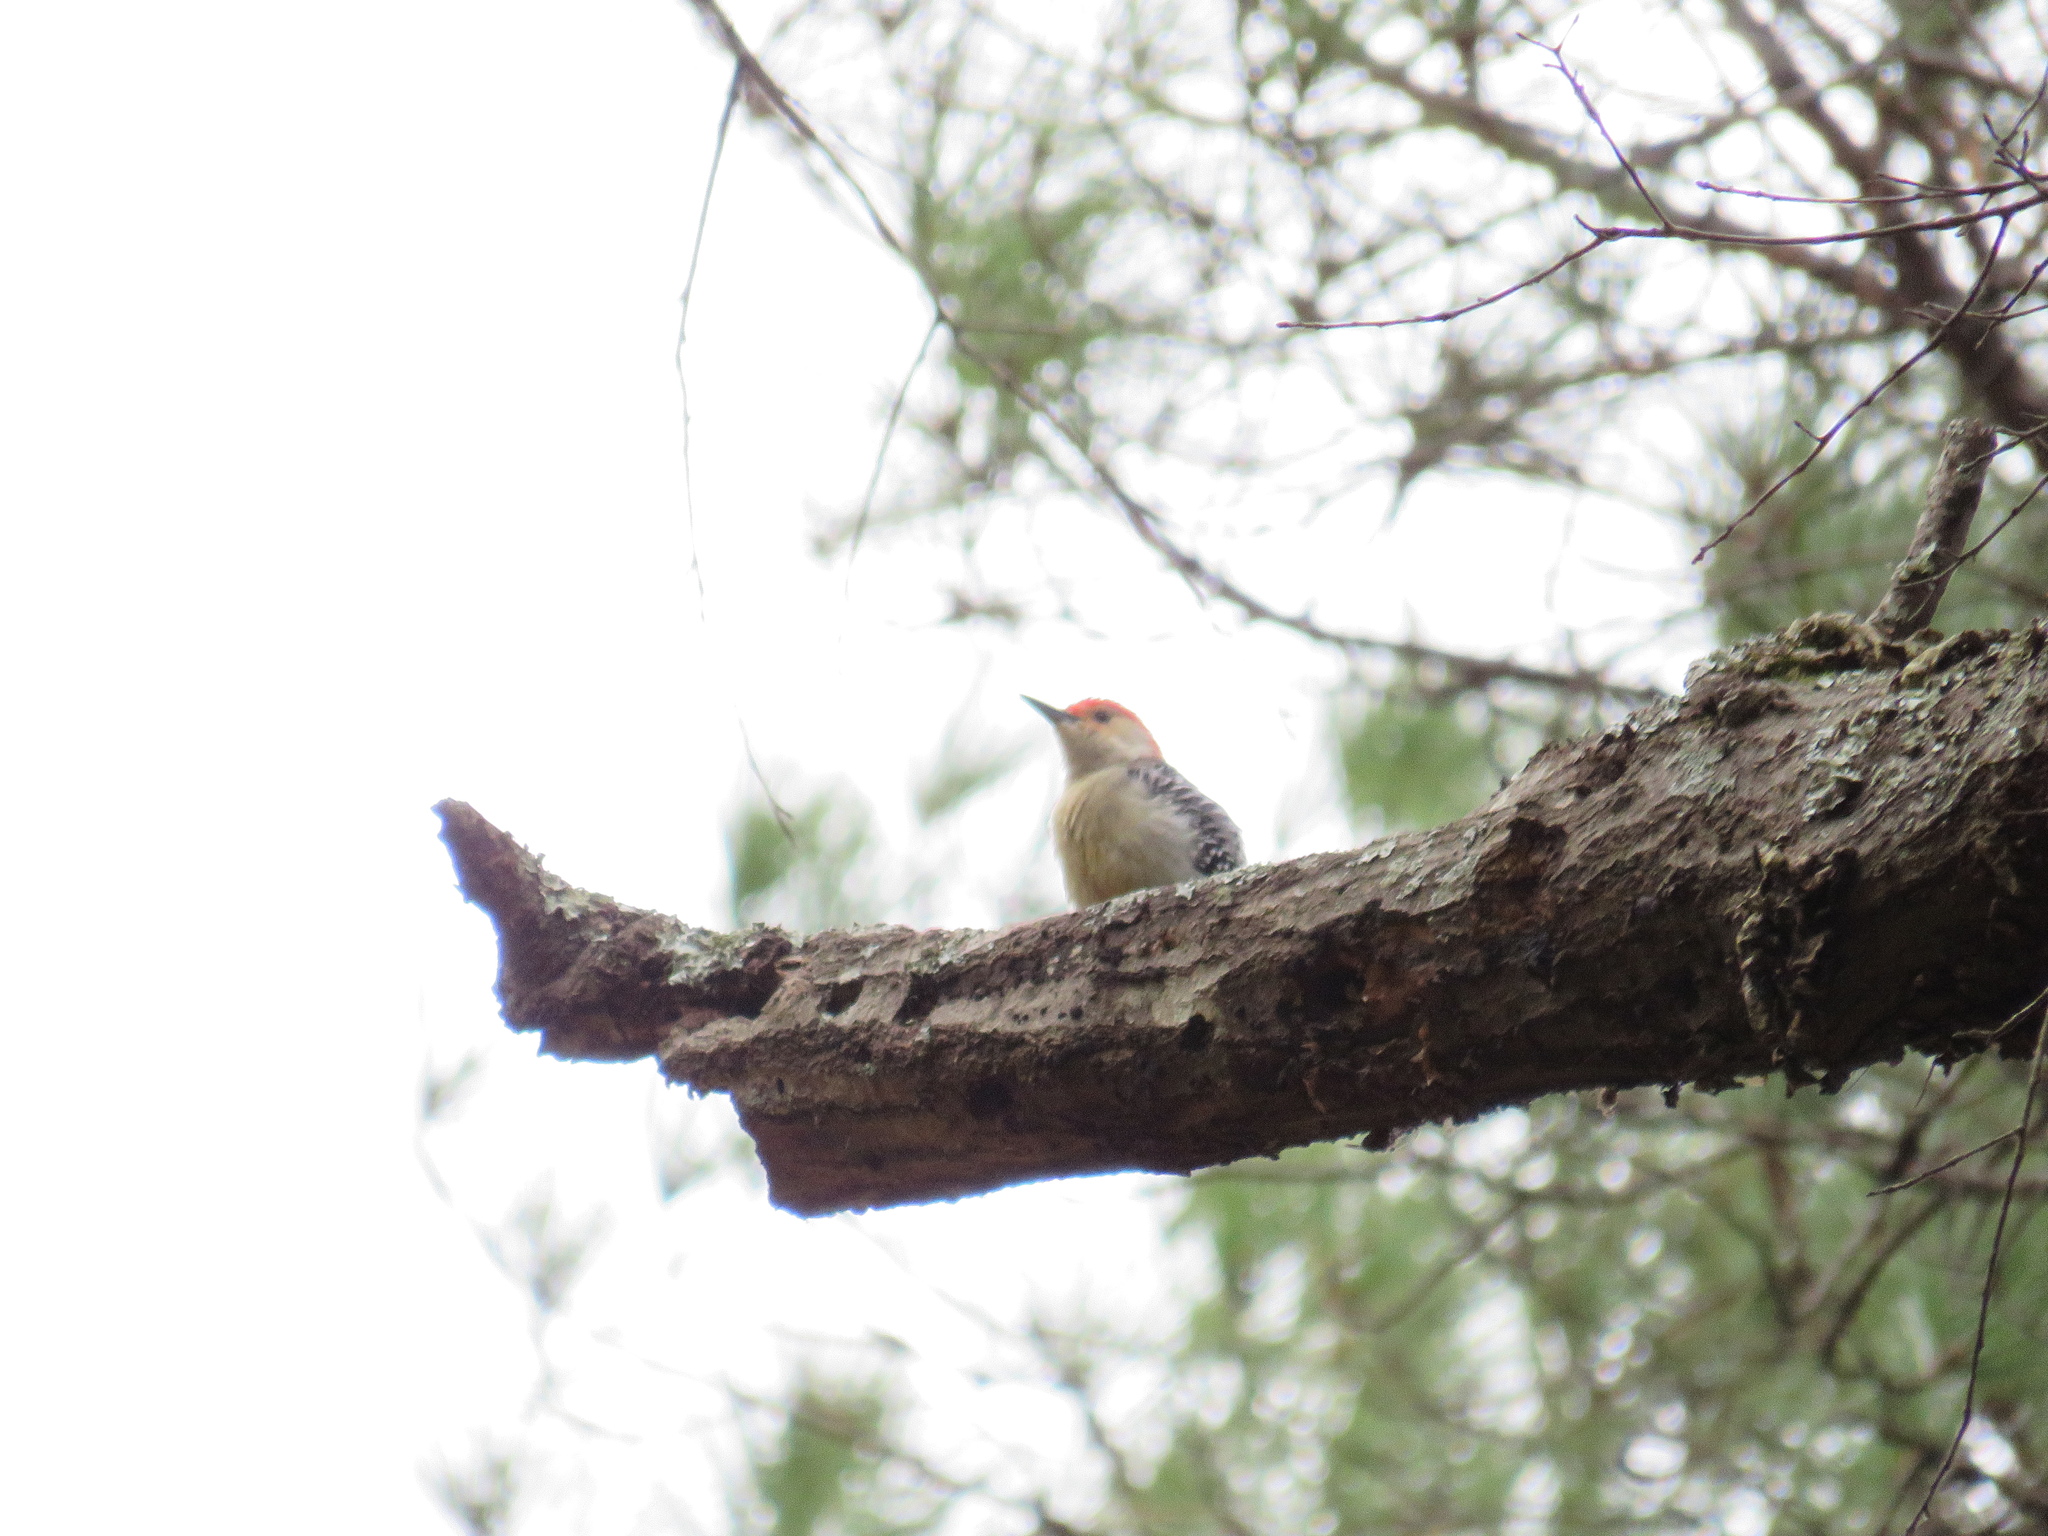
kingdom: Animalia
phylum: Chordata
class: Aves
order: Piciformes
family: Picidae
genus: Melanerpes
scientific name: Melanerpes carolinus
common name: Red-bellied woodpecker
